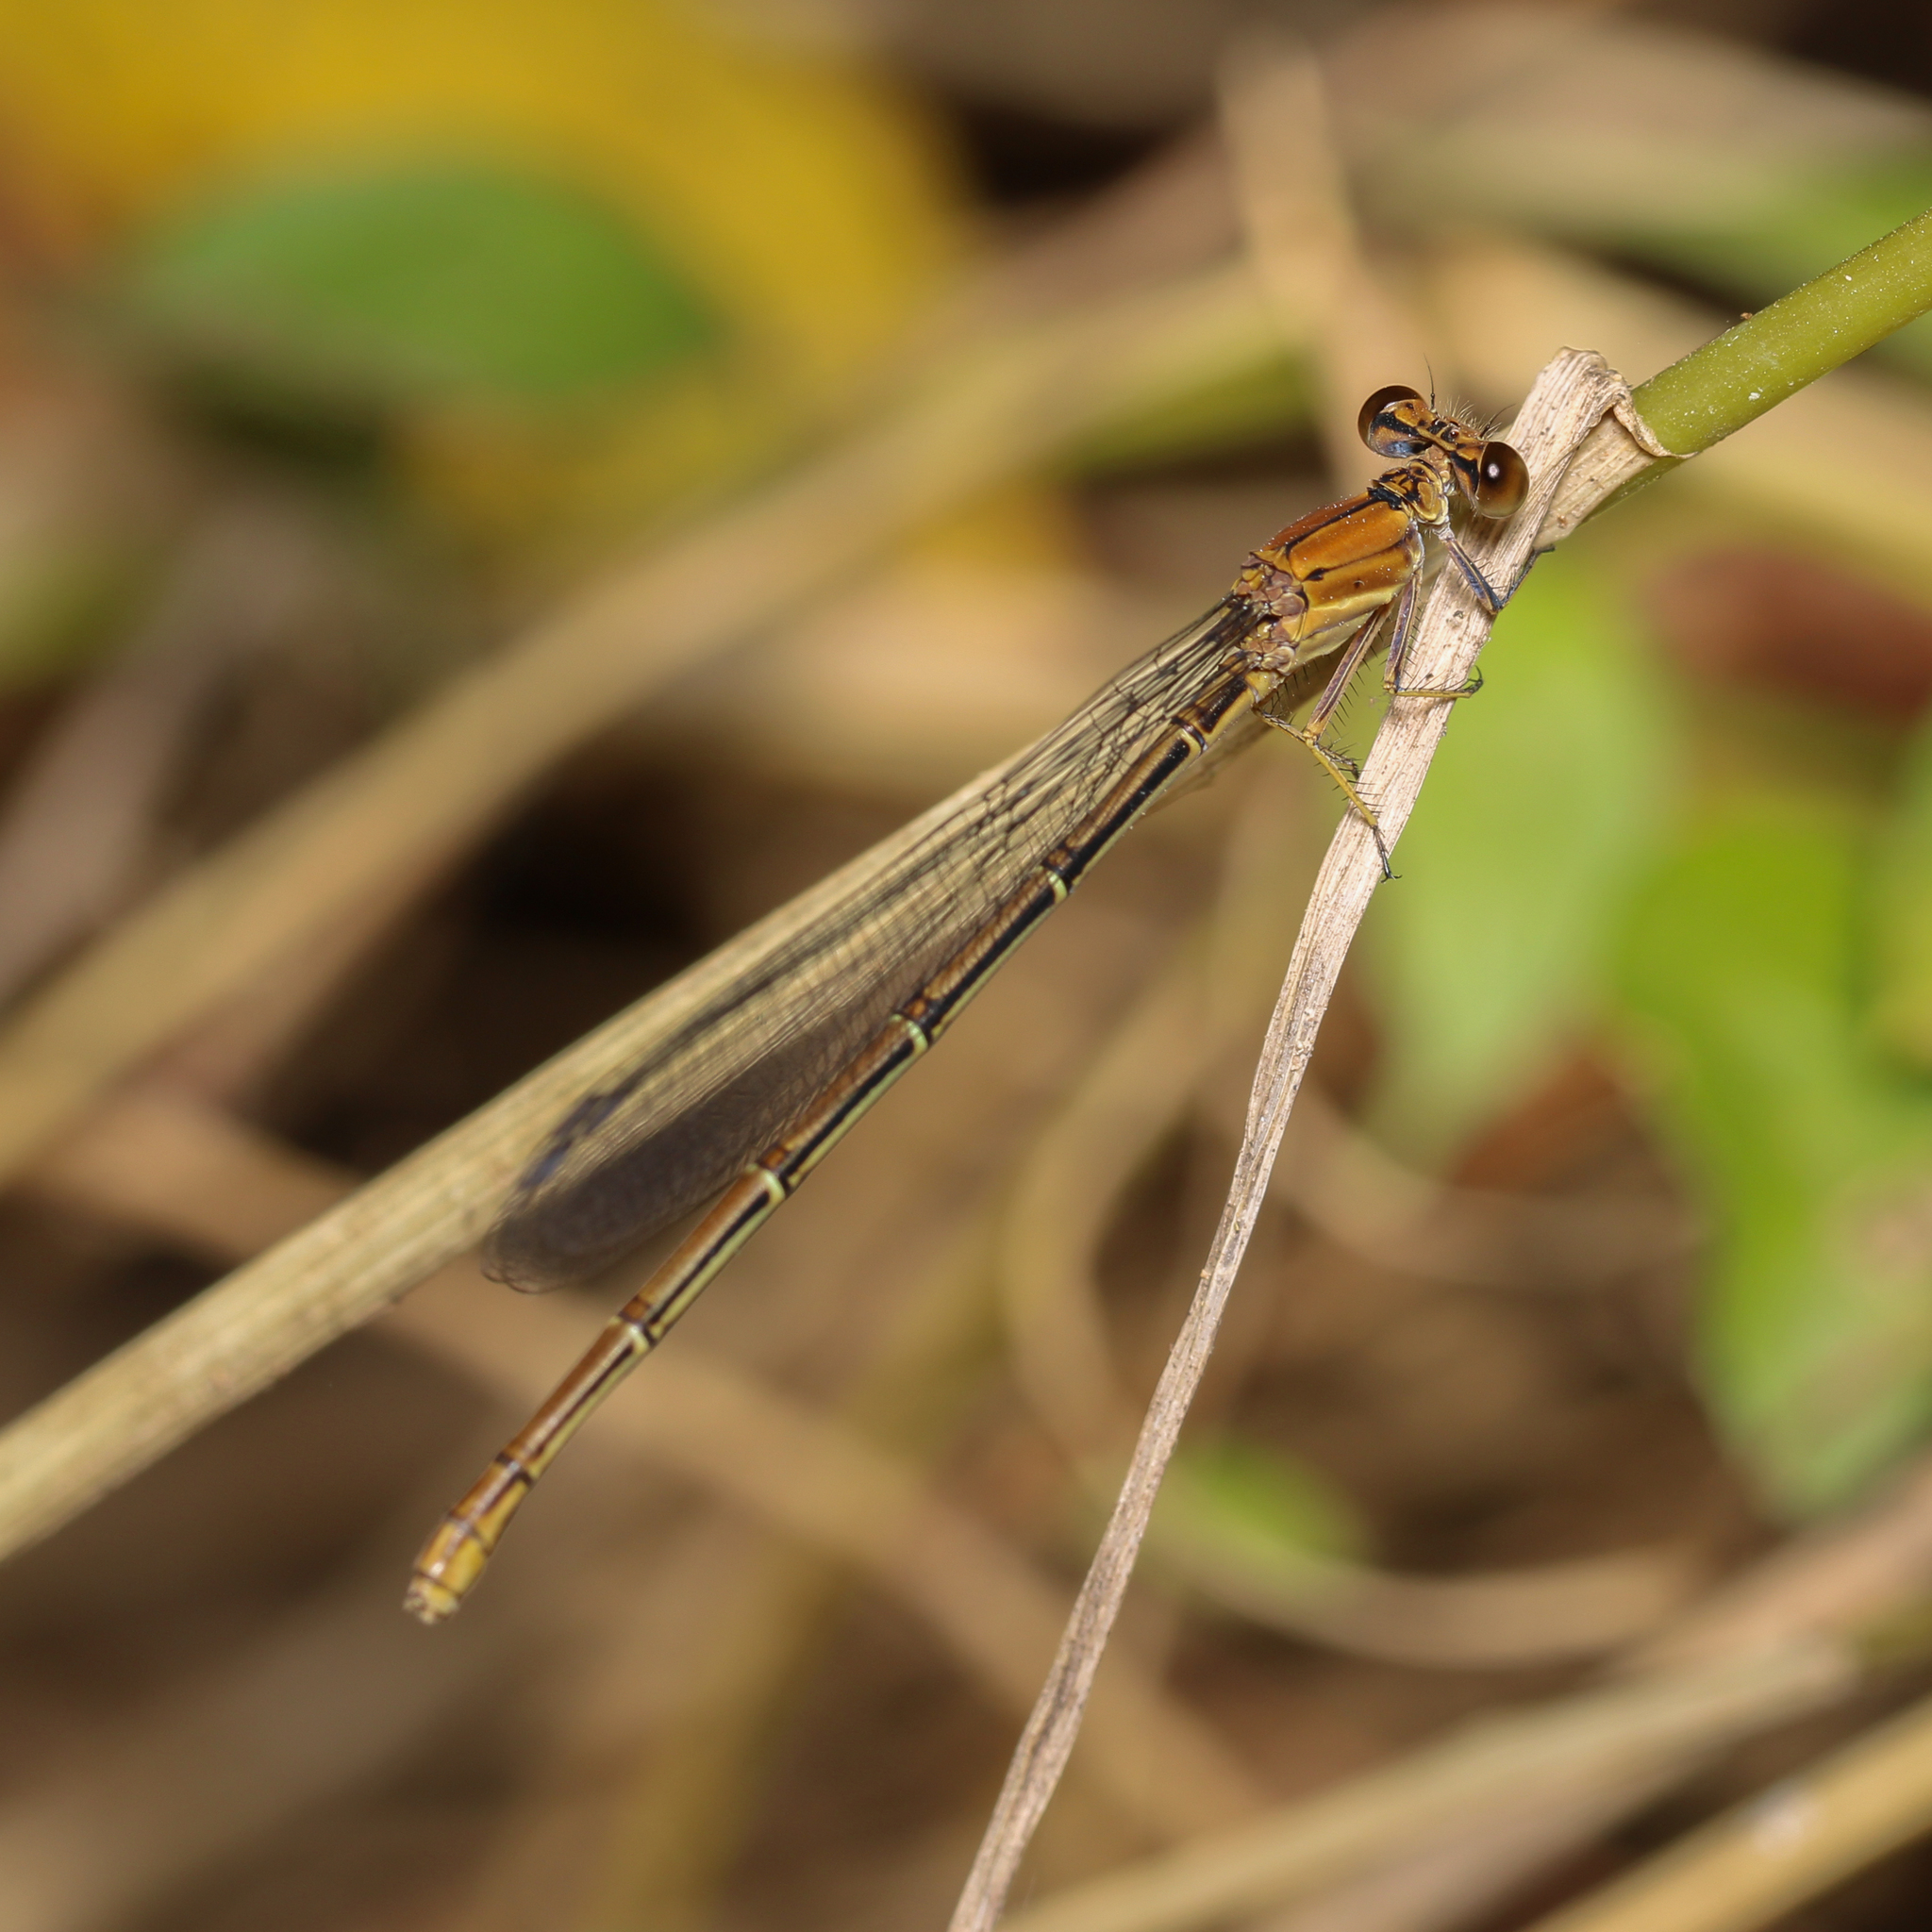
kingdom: Animalia
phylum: Arthropoda
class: Insecta
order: Odonata
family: Coenagrionidae
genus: Argia
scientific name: Argia moesta
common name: Powdered dancer
